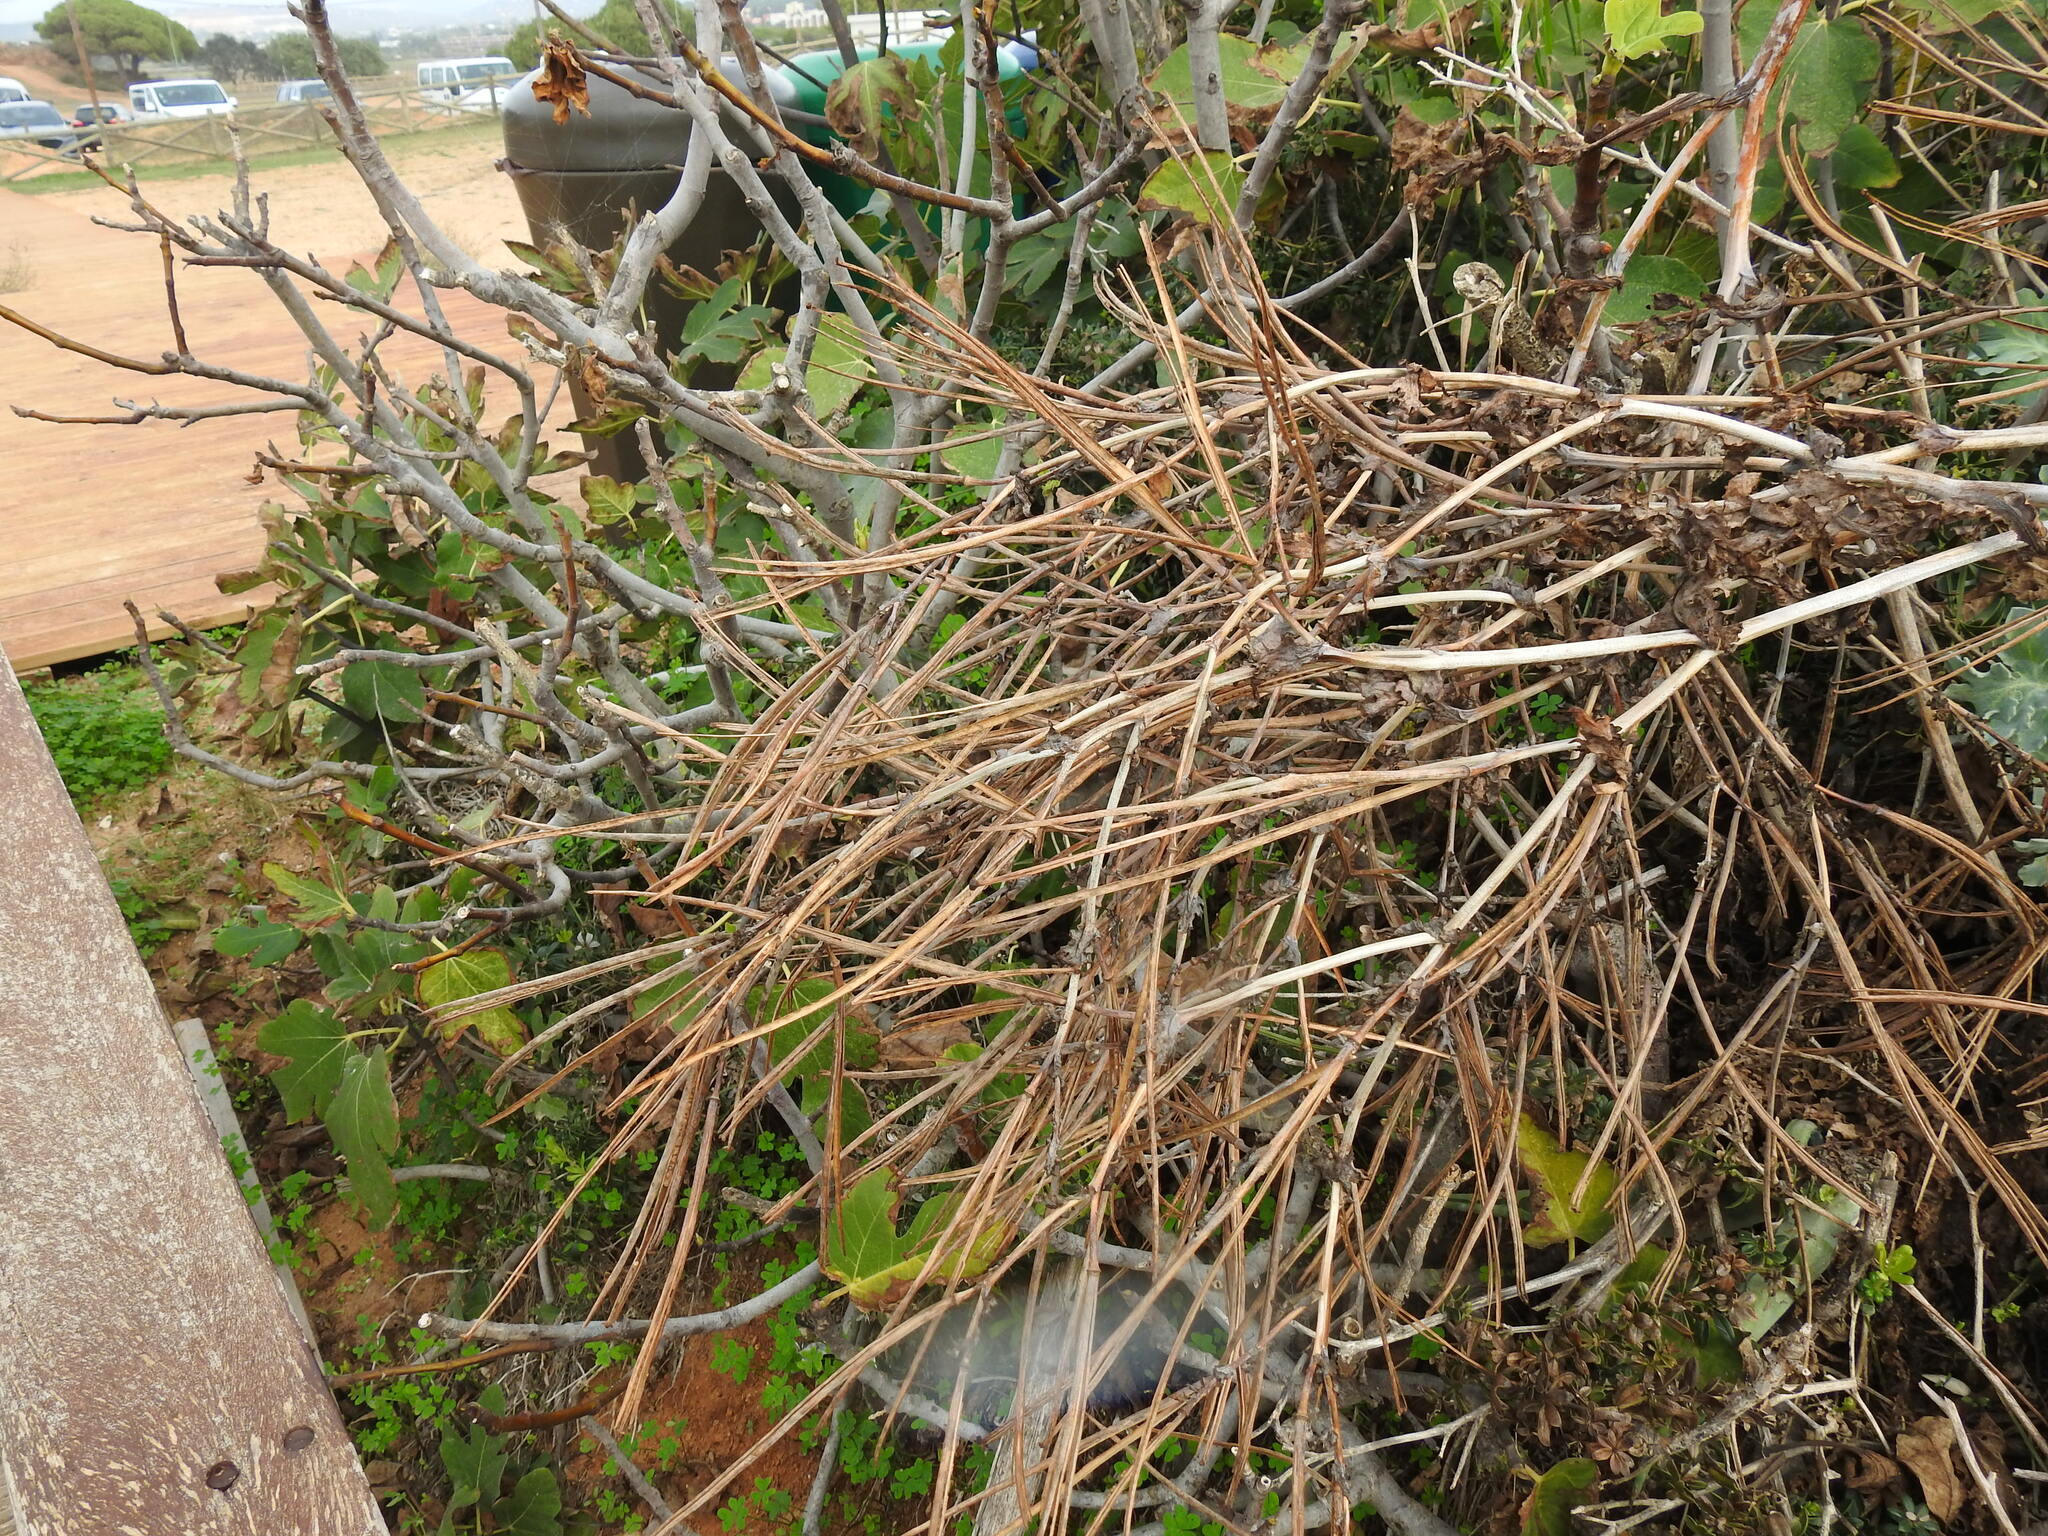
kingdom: Plantae
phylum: Tracheophyta
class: Magnoliopsida
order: Ranunculales
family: Papaveraceae
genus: Glaucium
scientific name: Glaucium flavum
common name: Yellow horned-poppy
